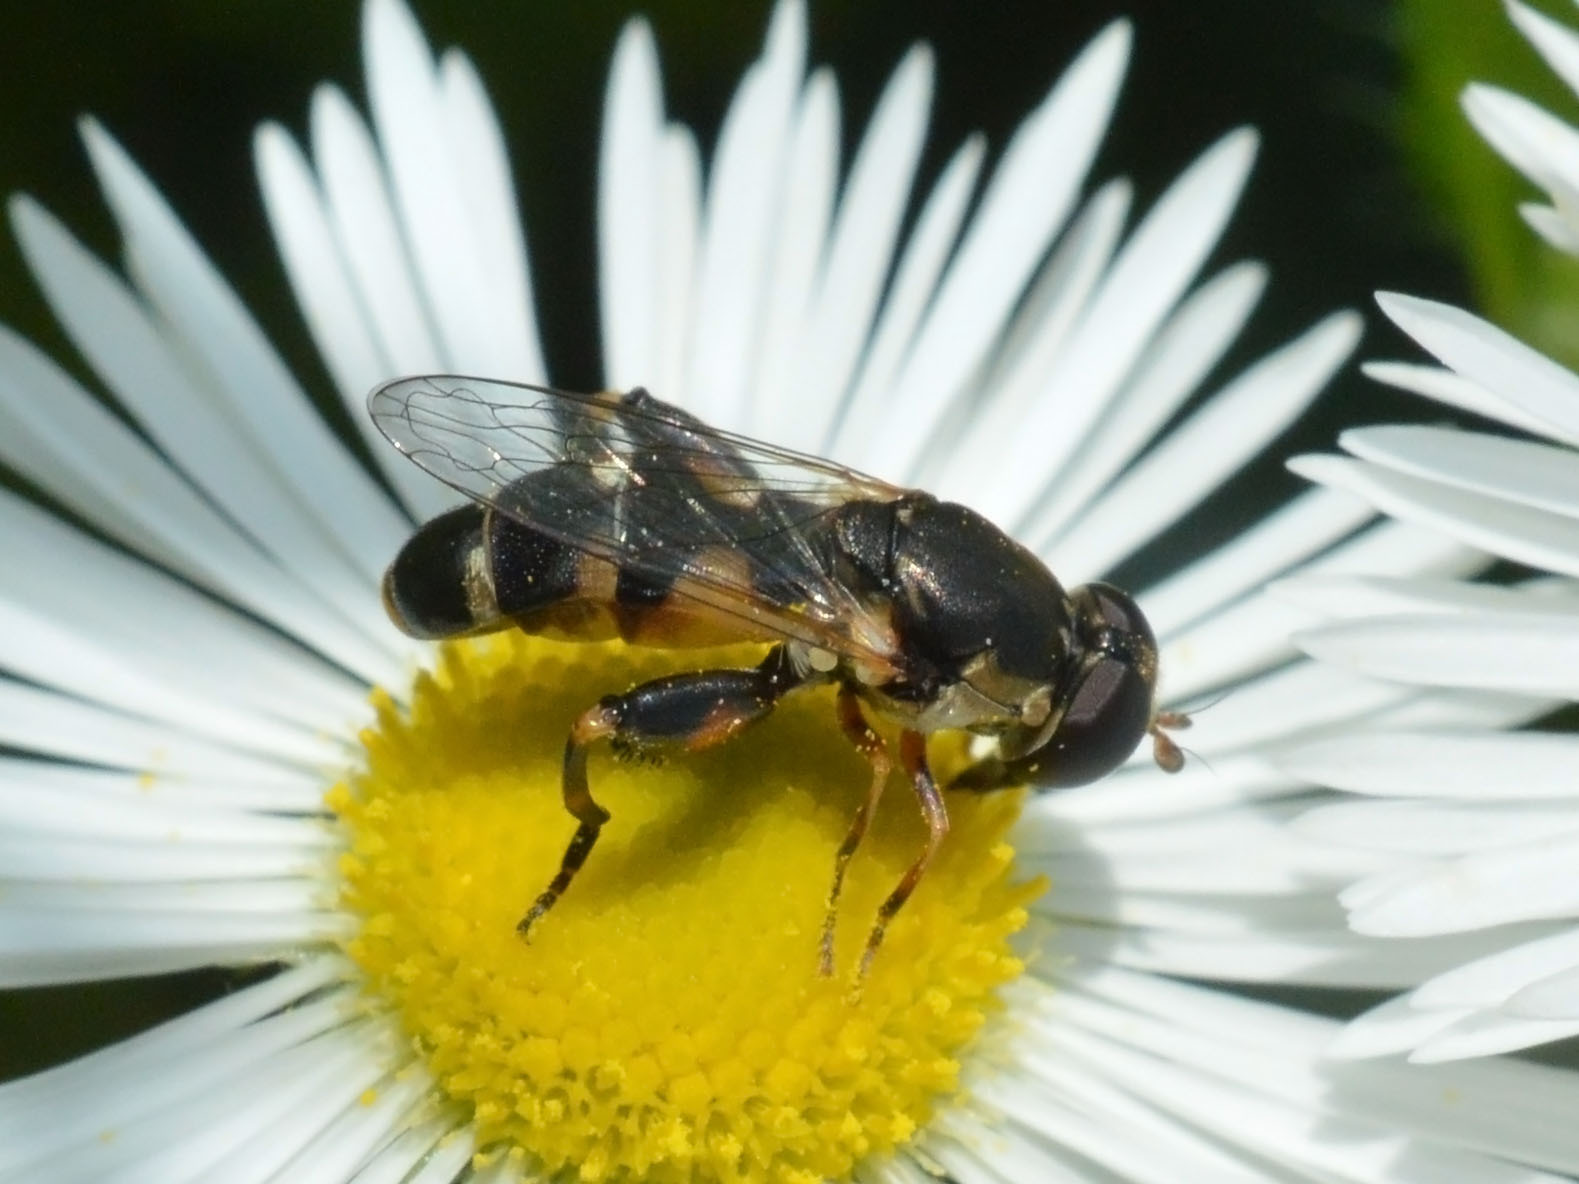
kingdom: Animalia
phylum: Arthropoda
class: Insecta
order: Diptera
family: Syrphidae
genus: Syritta
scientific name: Syritta pipiens
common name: Hover fly
